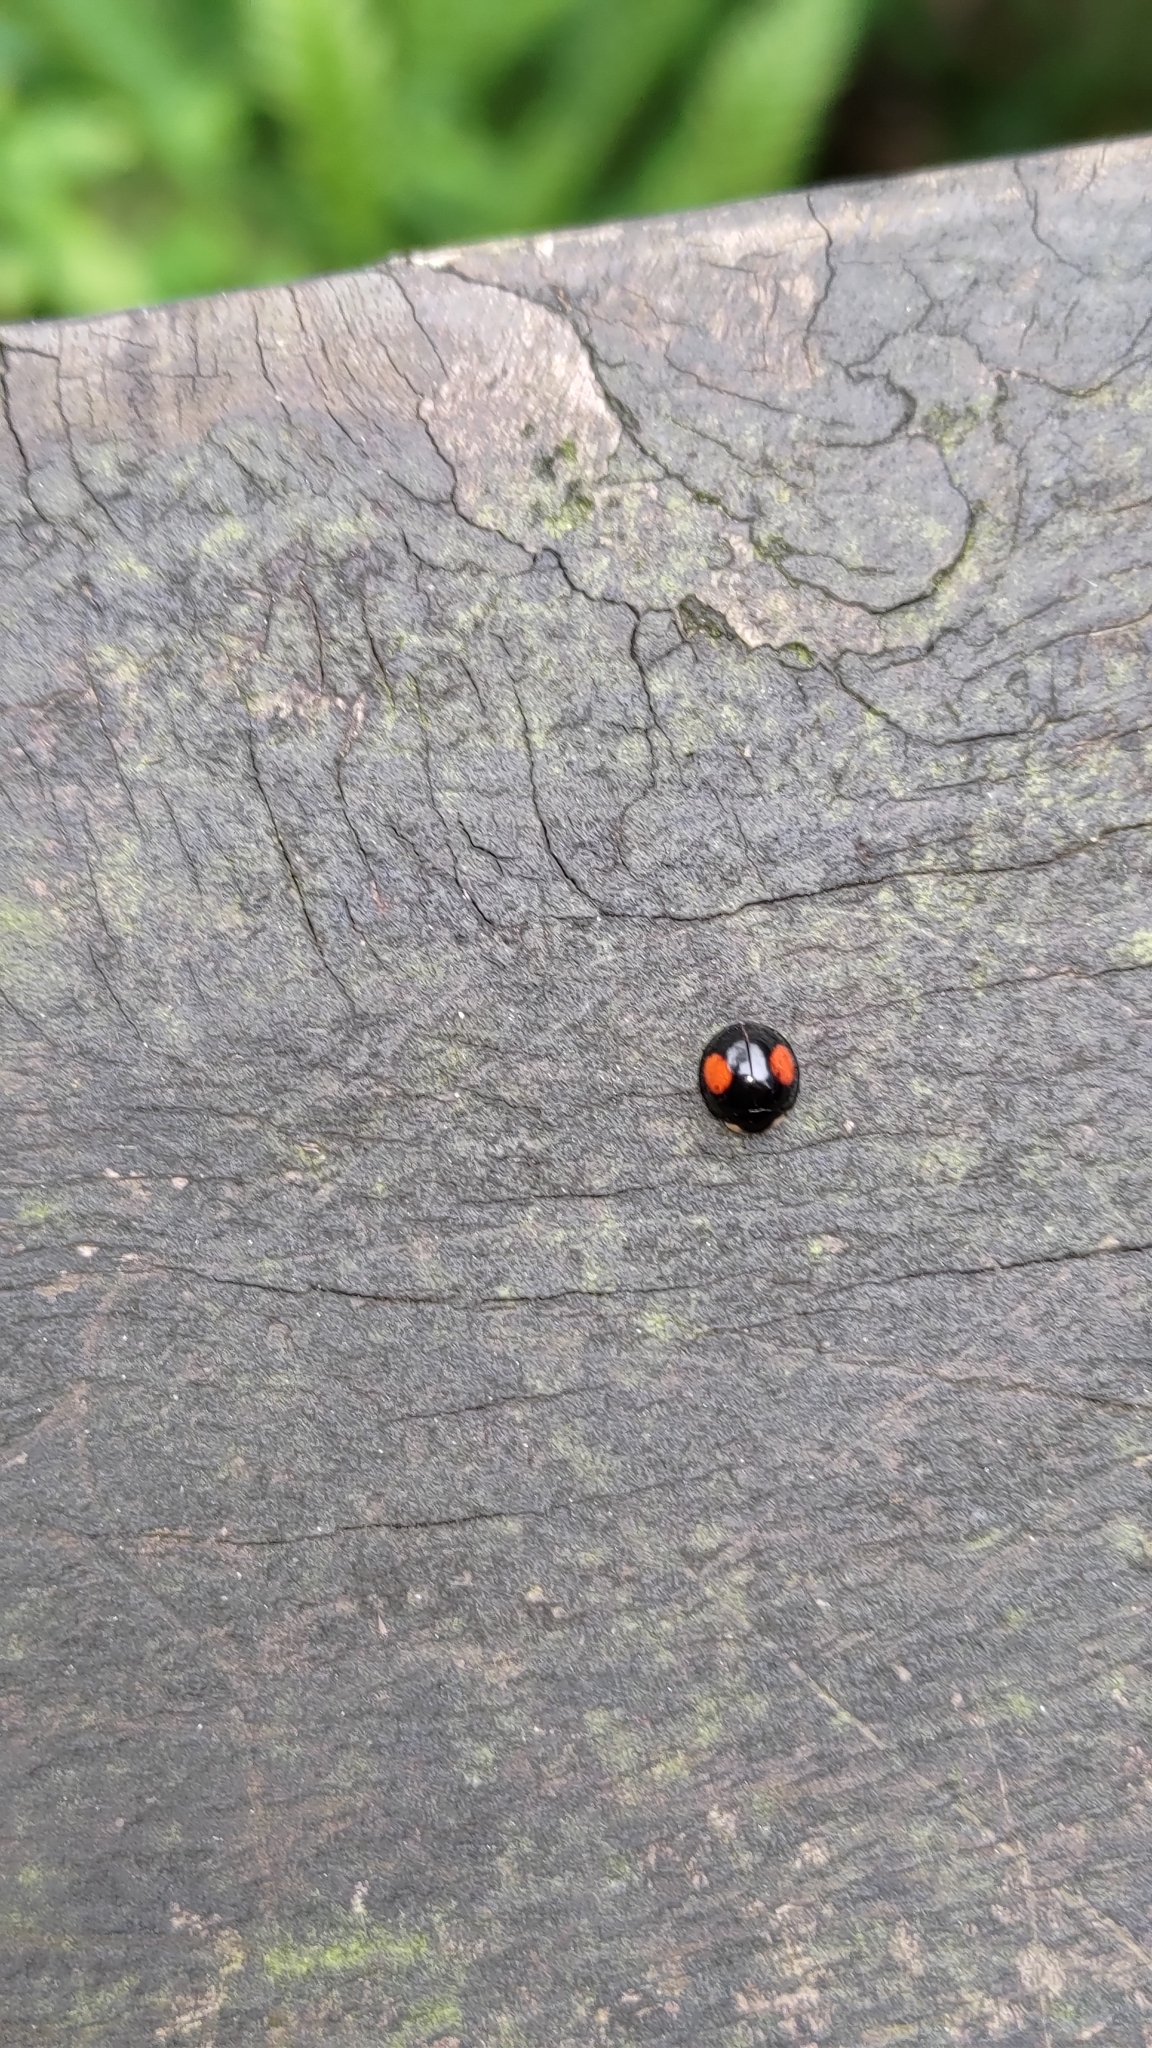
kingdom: Animalia
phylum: Arthropoda
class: Insecta
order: Coleoptera
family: Coccinellidae
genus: Coelophora
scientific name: Coelophora saucia
